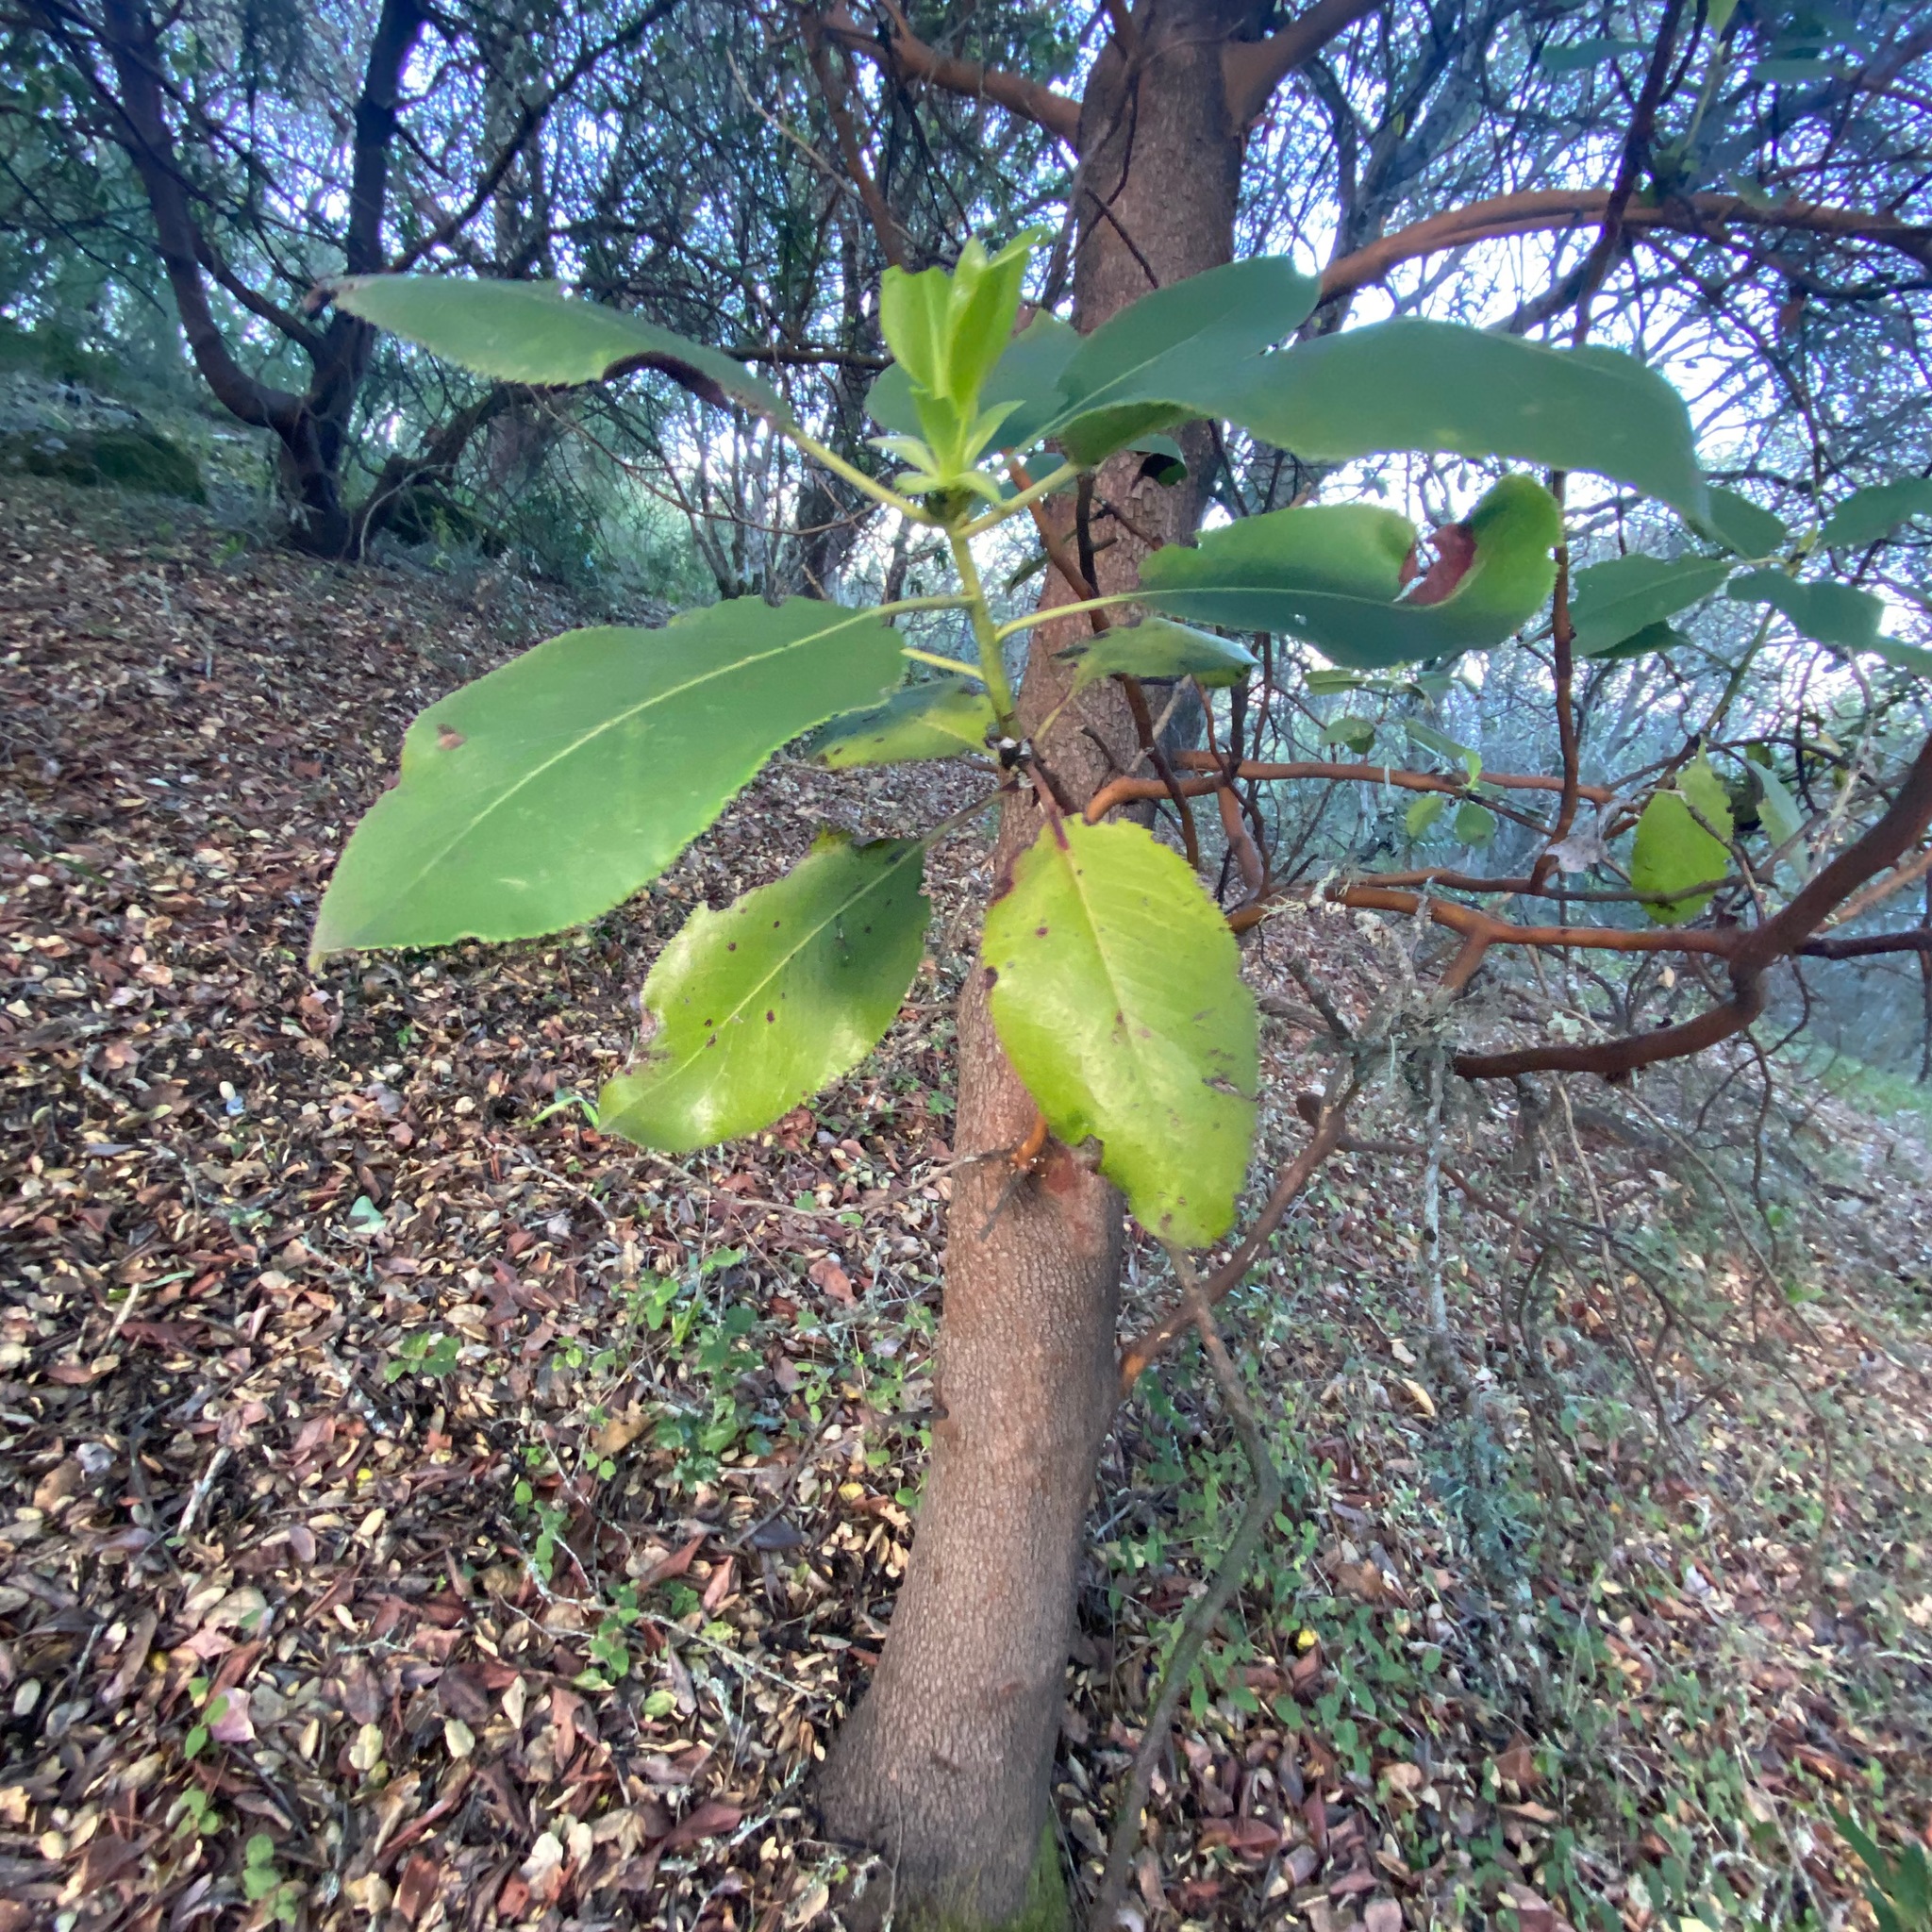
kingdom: Plantae
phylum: Tracheophyta
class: Magnoliopsida
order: Ericales
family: Ericaceae
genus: Arbutus
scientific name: Arbutus menziesii
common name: Pacific madrone
